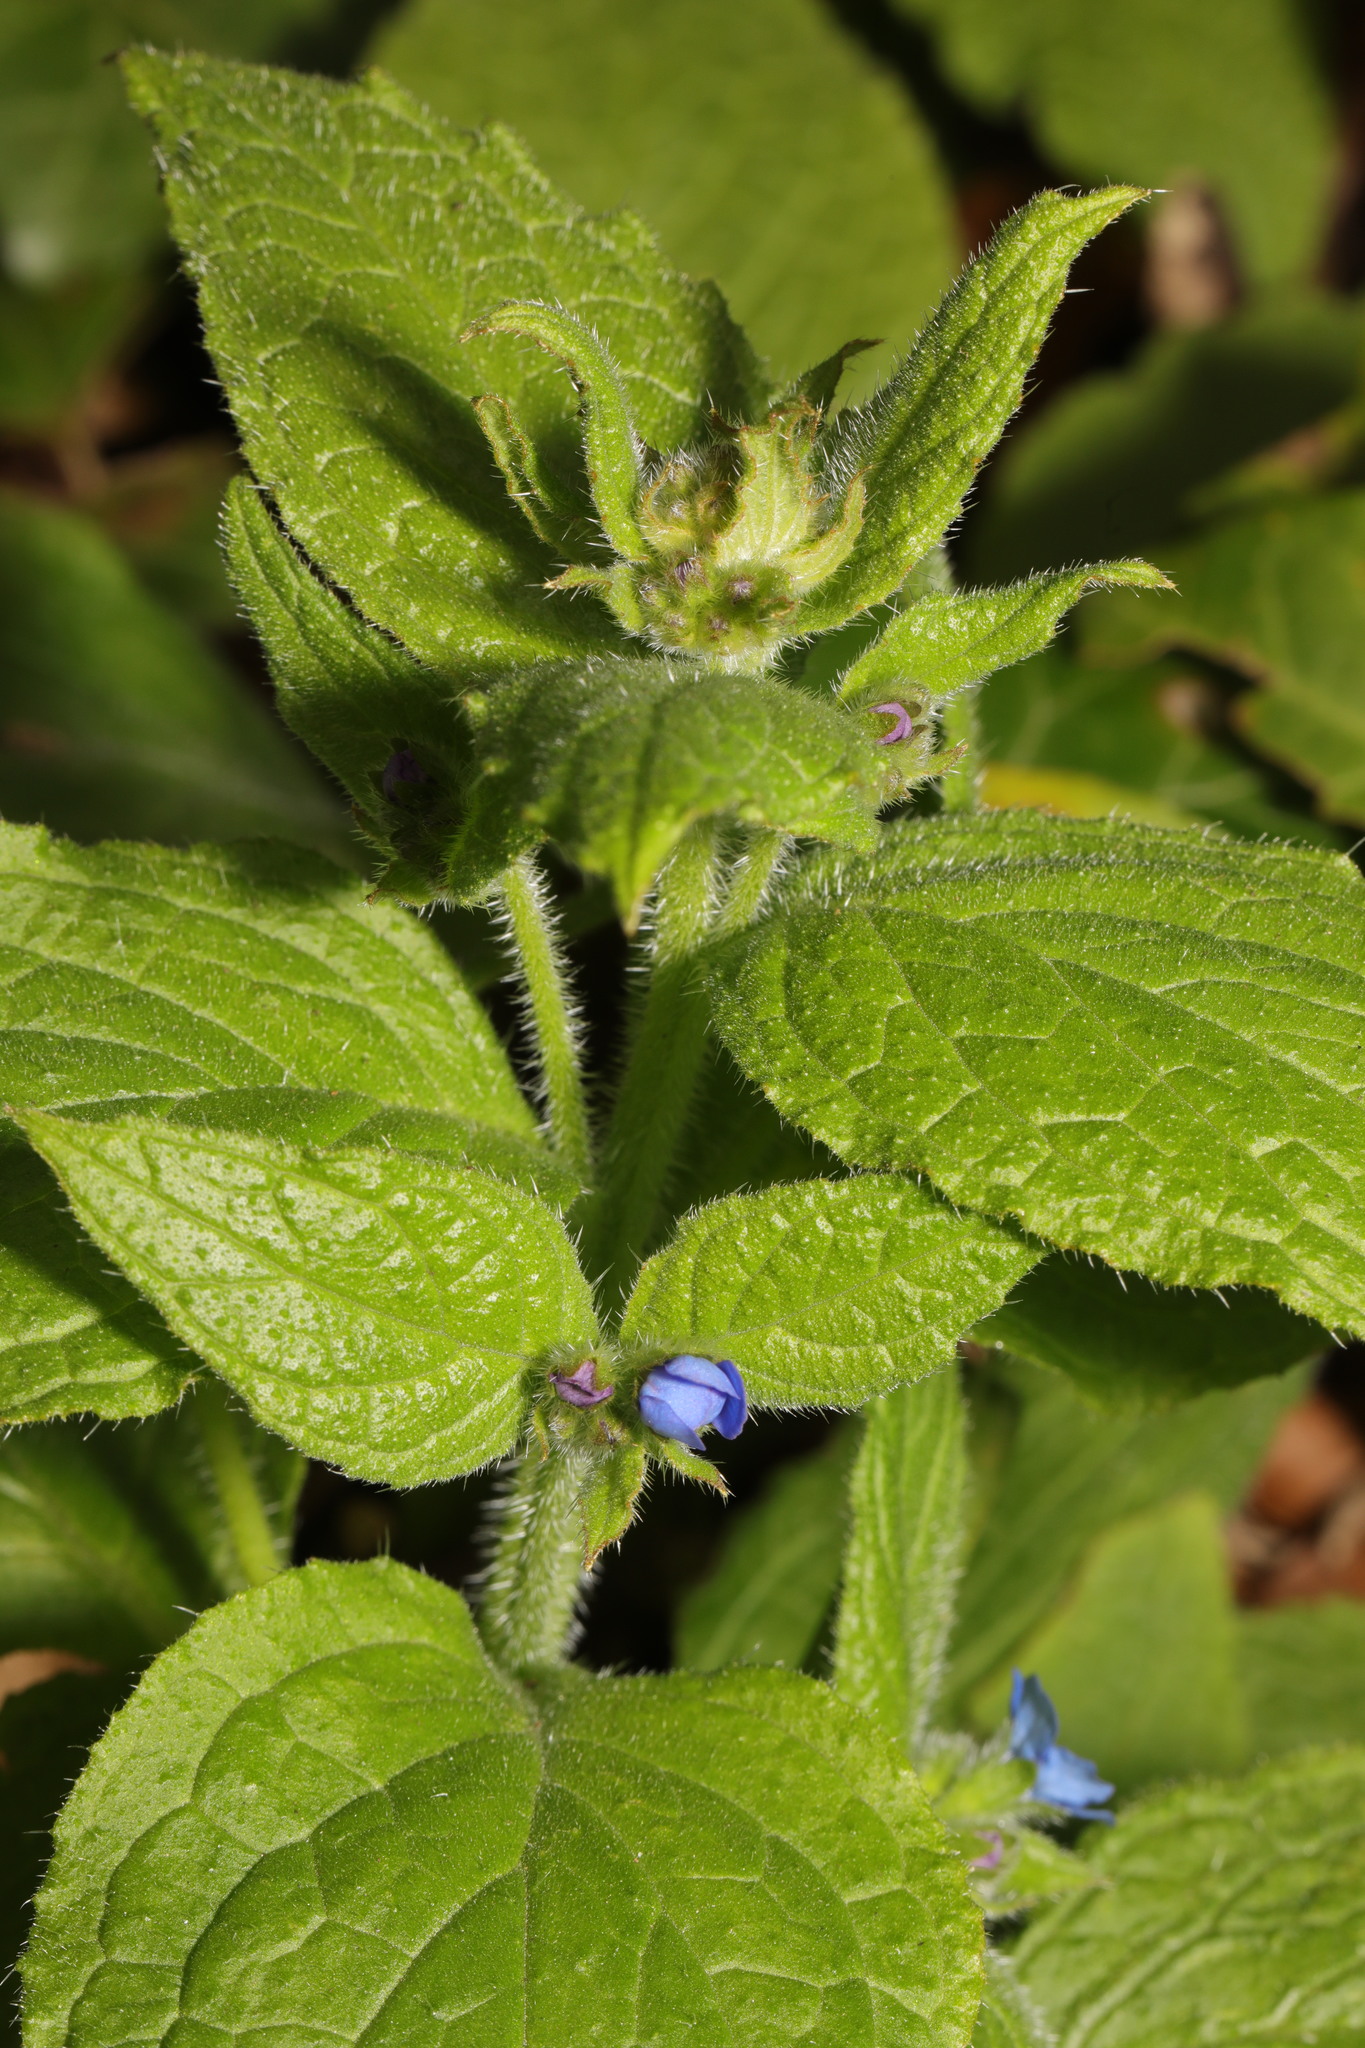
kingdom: Plantae
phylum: Tracheophyta
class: Magnoliopsida
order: Boraginales
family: Boraginaceae
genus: Pentaglottis
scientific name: Pentaglottis sempervirens
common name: Green alkanet
